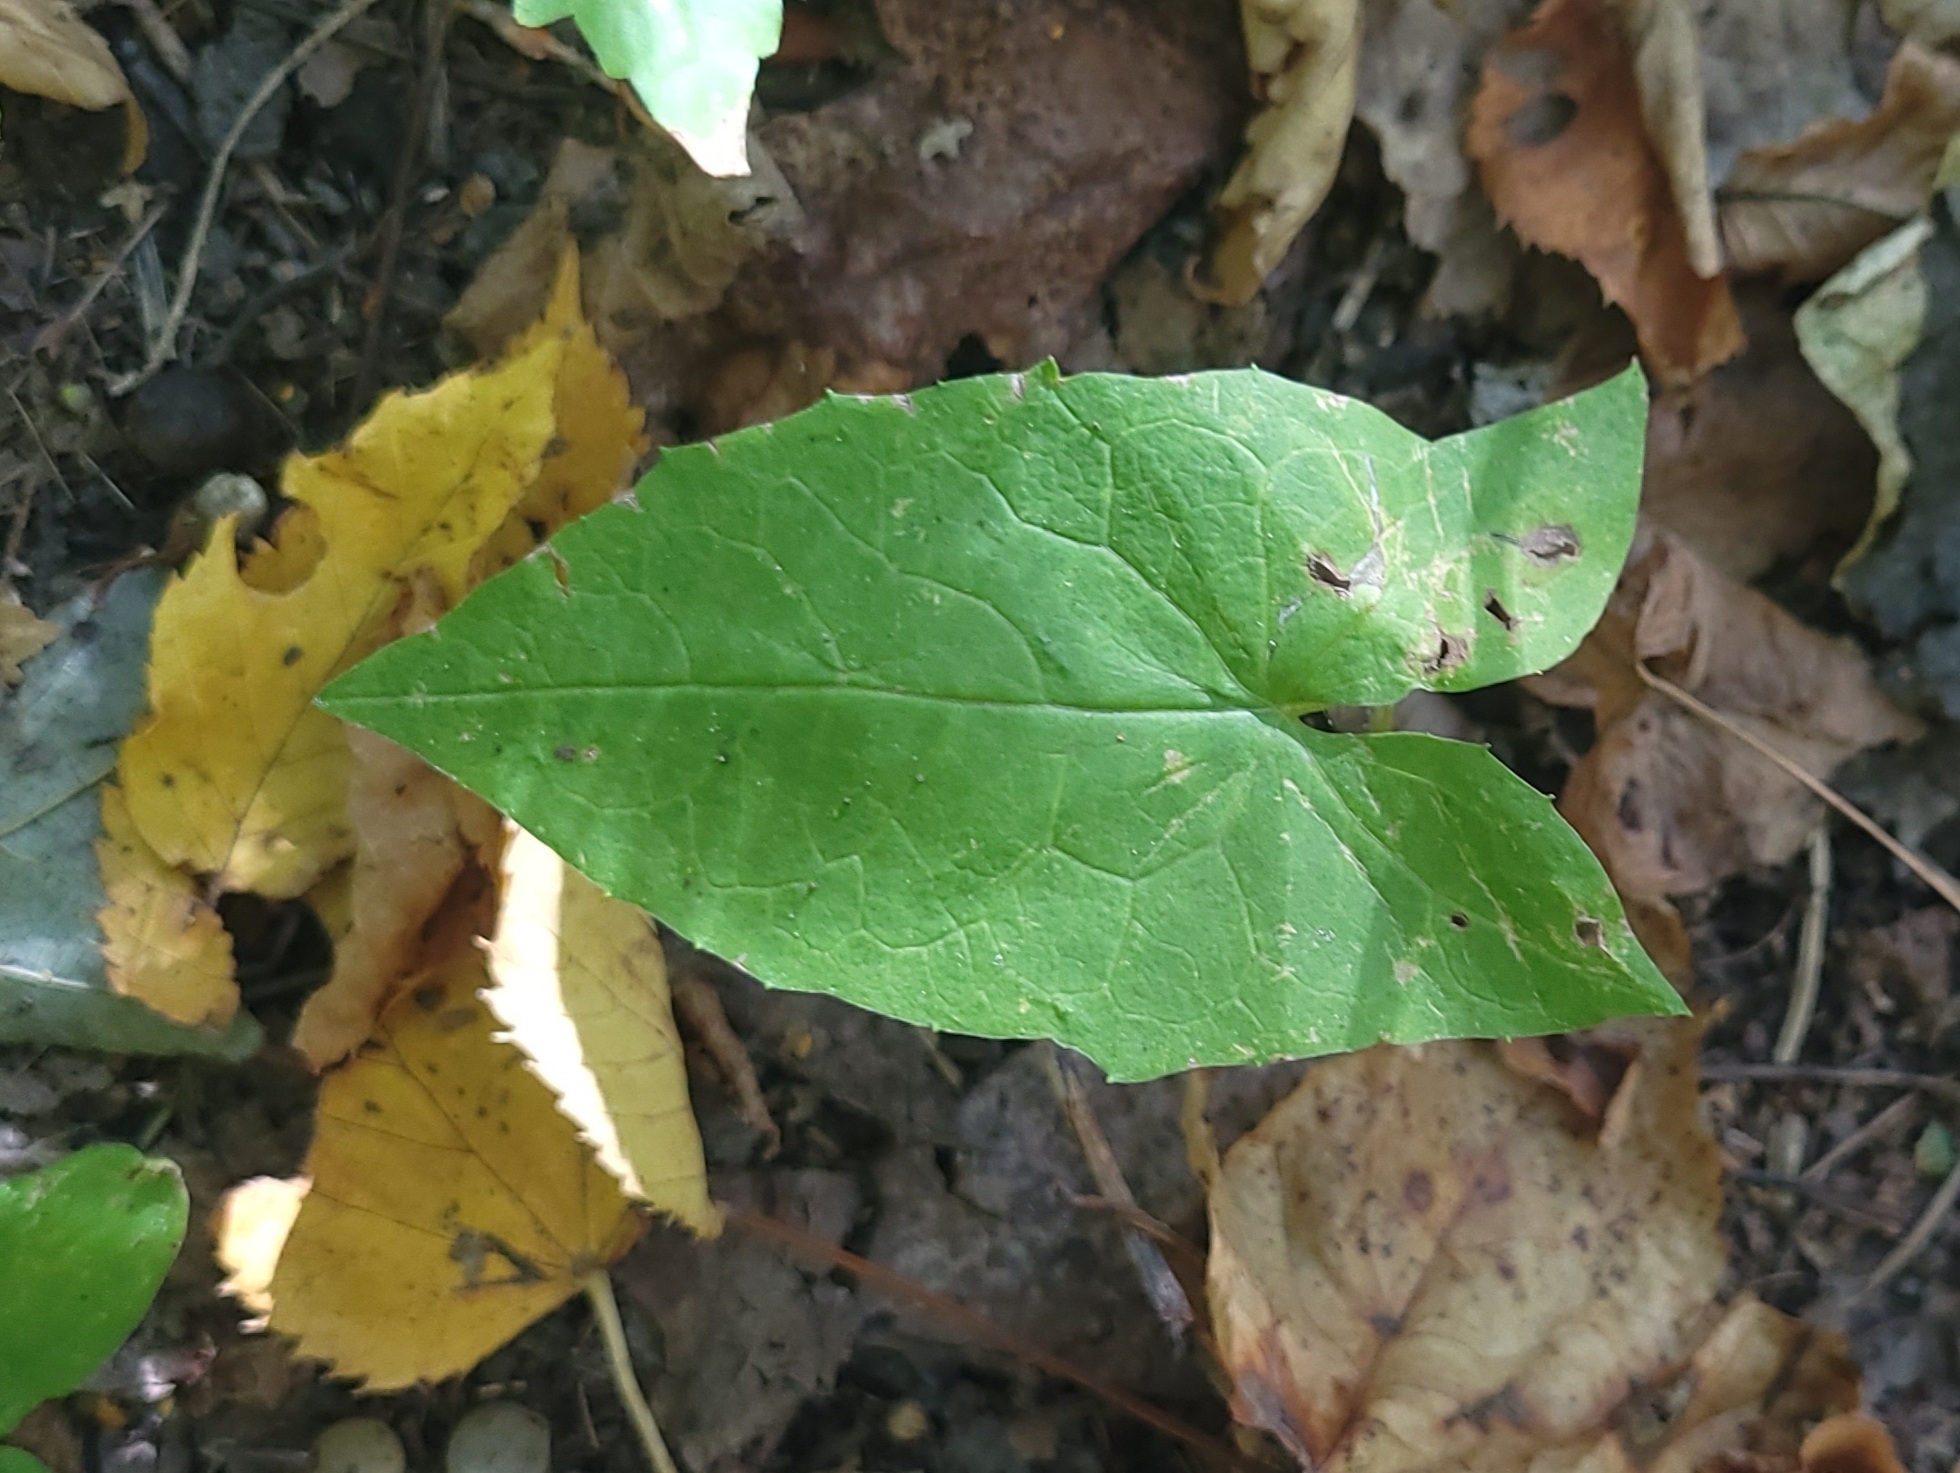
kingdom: Plantae
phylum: Tracheophyta
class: Magnoliopsida
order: Asterales
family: Asteraceae
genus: Nabalus
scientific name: Nabalus
